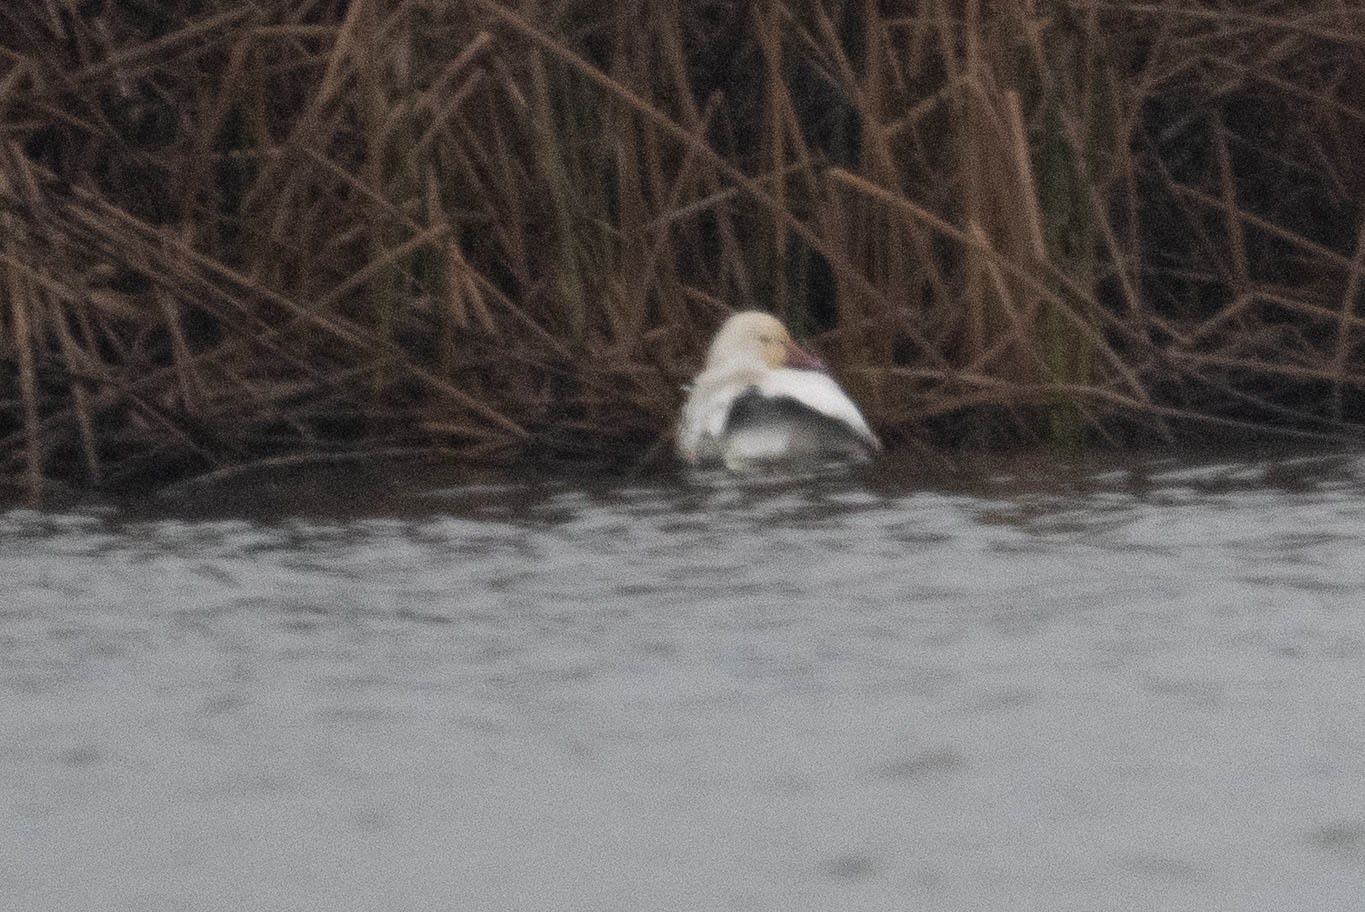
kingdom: Animalia
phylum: Chordata
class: Aves
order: Anseriformes
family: Anatidae
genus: Anser
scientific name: Anser caerulescens
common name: Snow goose
